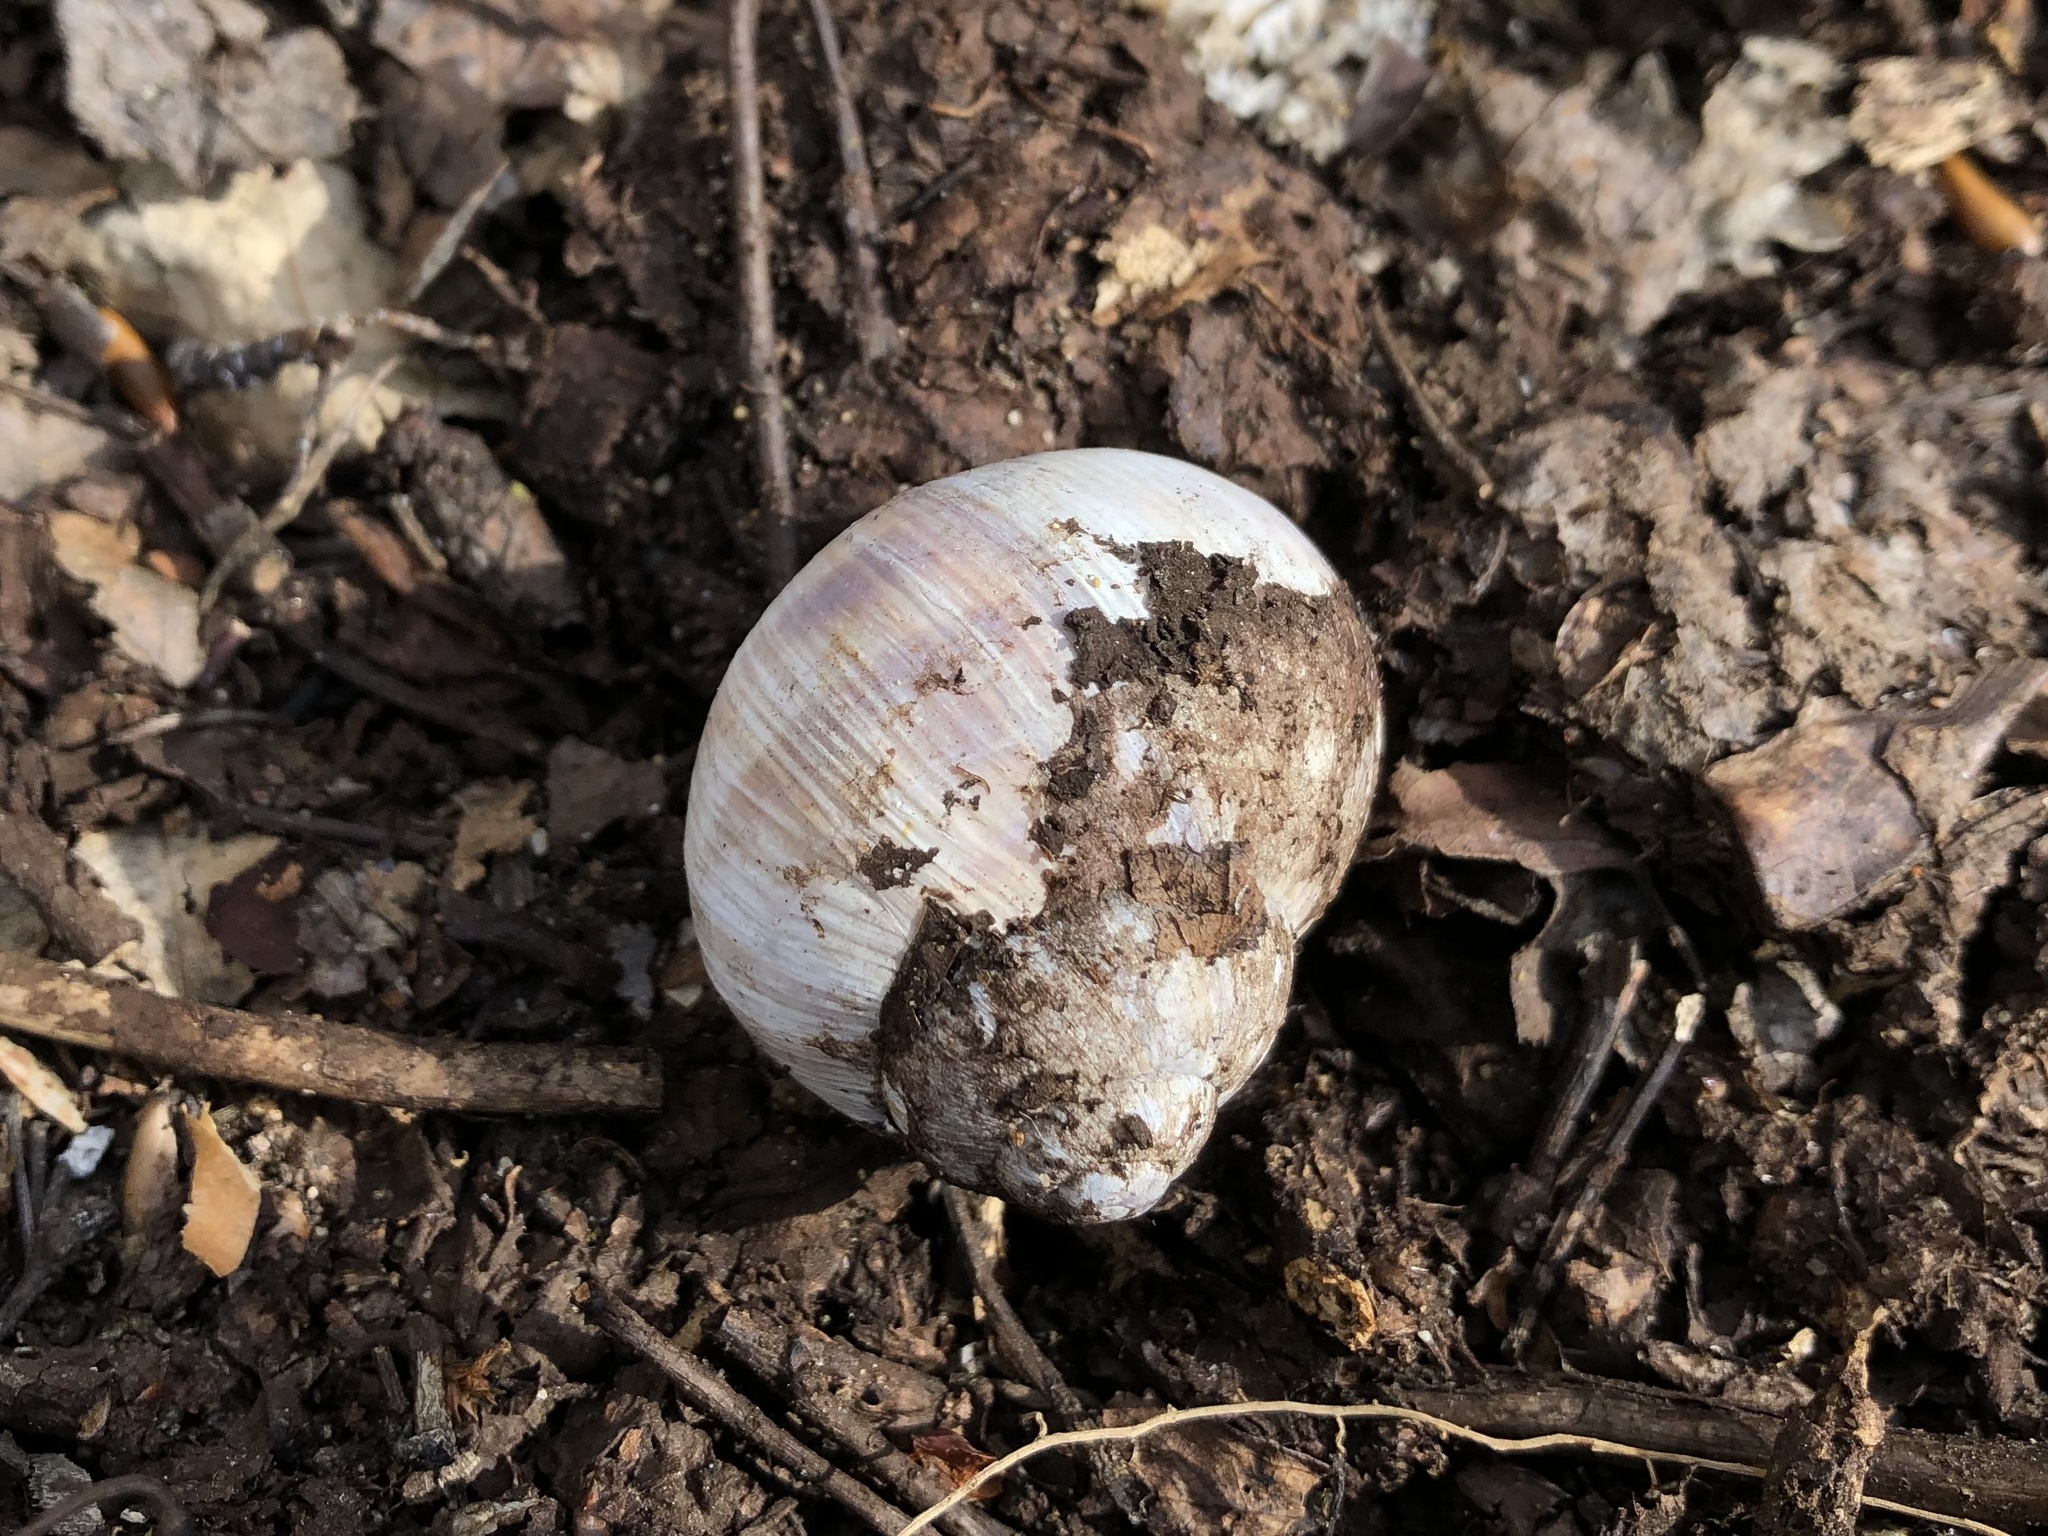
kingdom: Animalia
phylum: Mollusca
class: Gastropoda
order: Stylommatophora
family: Helicidae
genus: Helix
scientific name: Helix pomatia
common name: Roman snail
